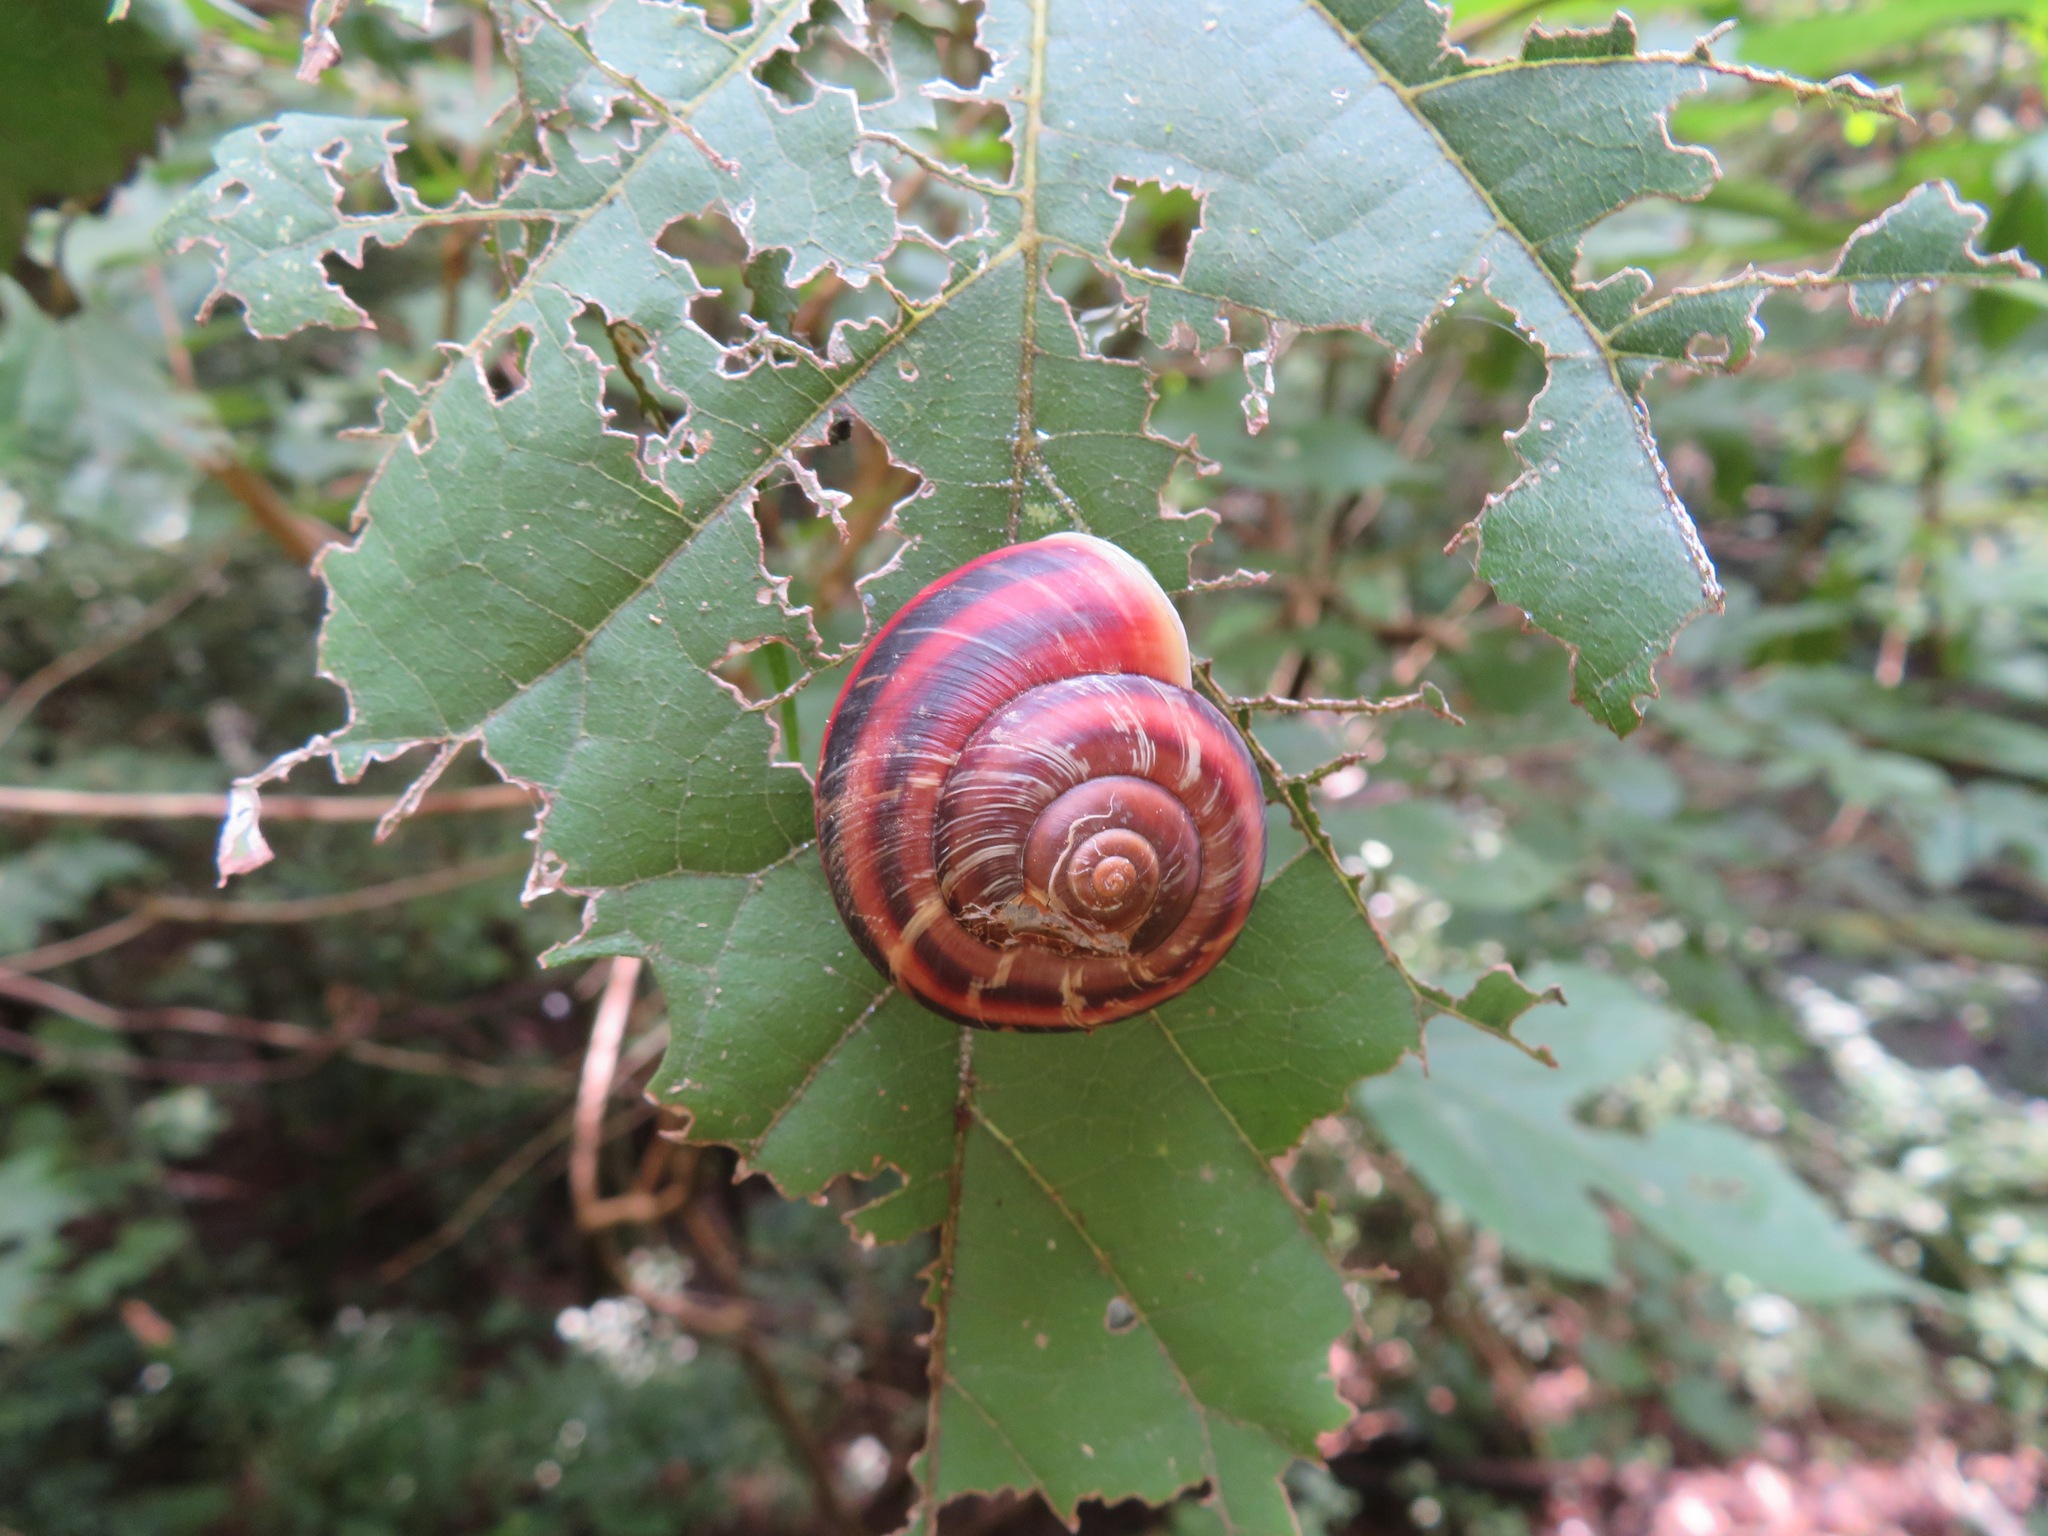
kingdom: Animalia
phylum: Mollusca
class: Gastropoda
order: Stylommatophora
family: Camaenidae
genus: Euhadra
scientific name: Euhadra peliomphala
